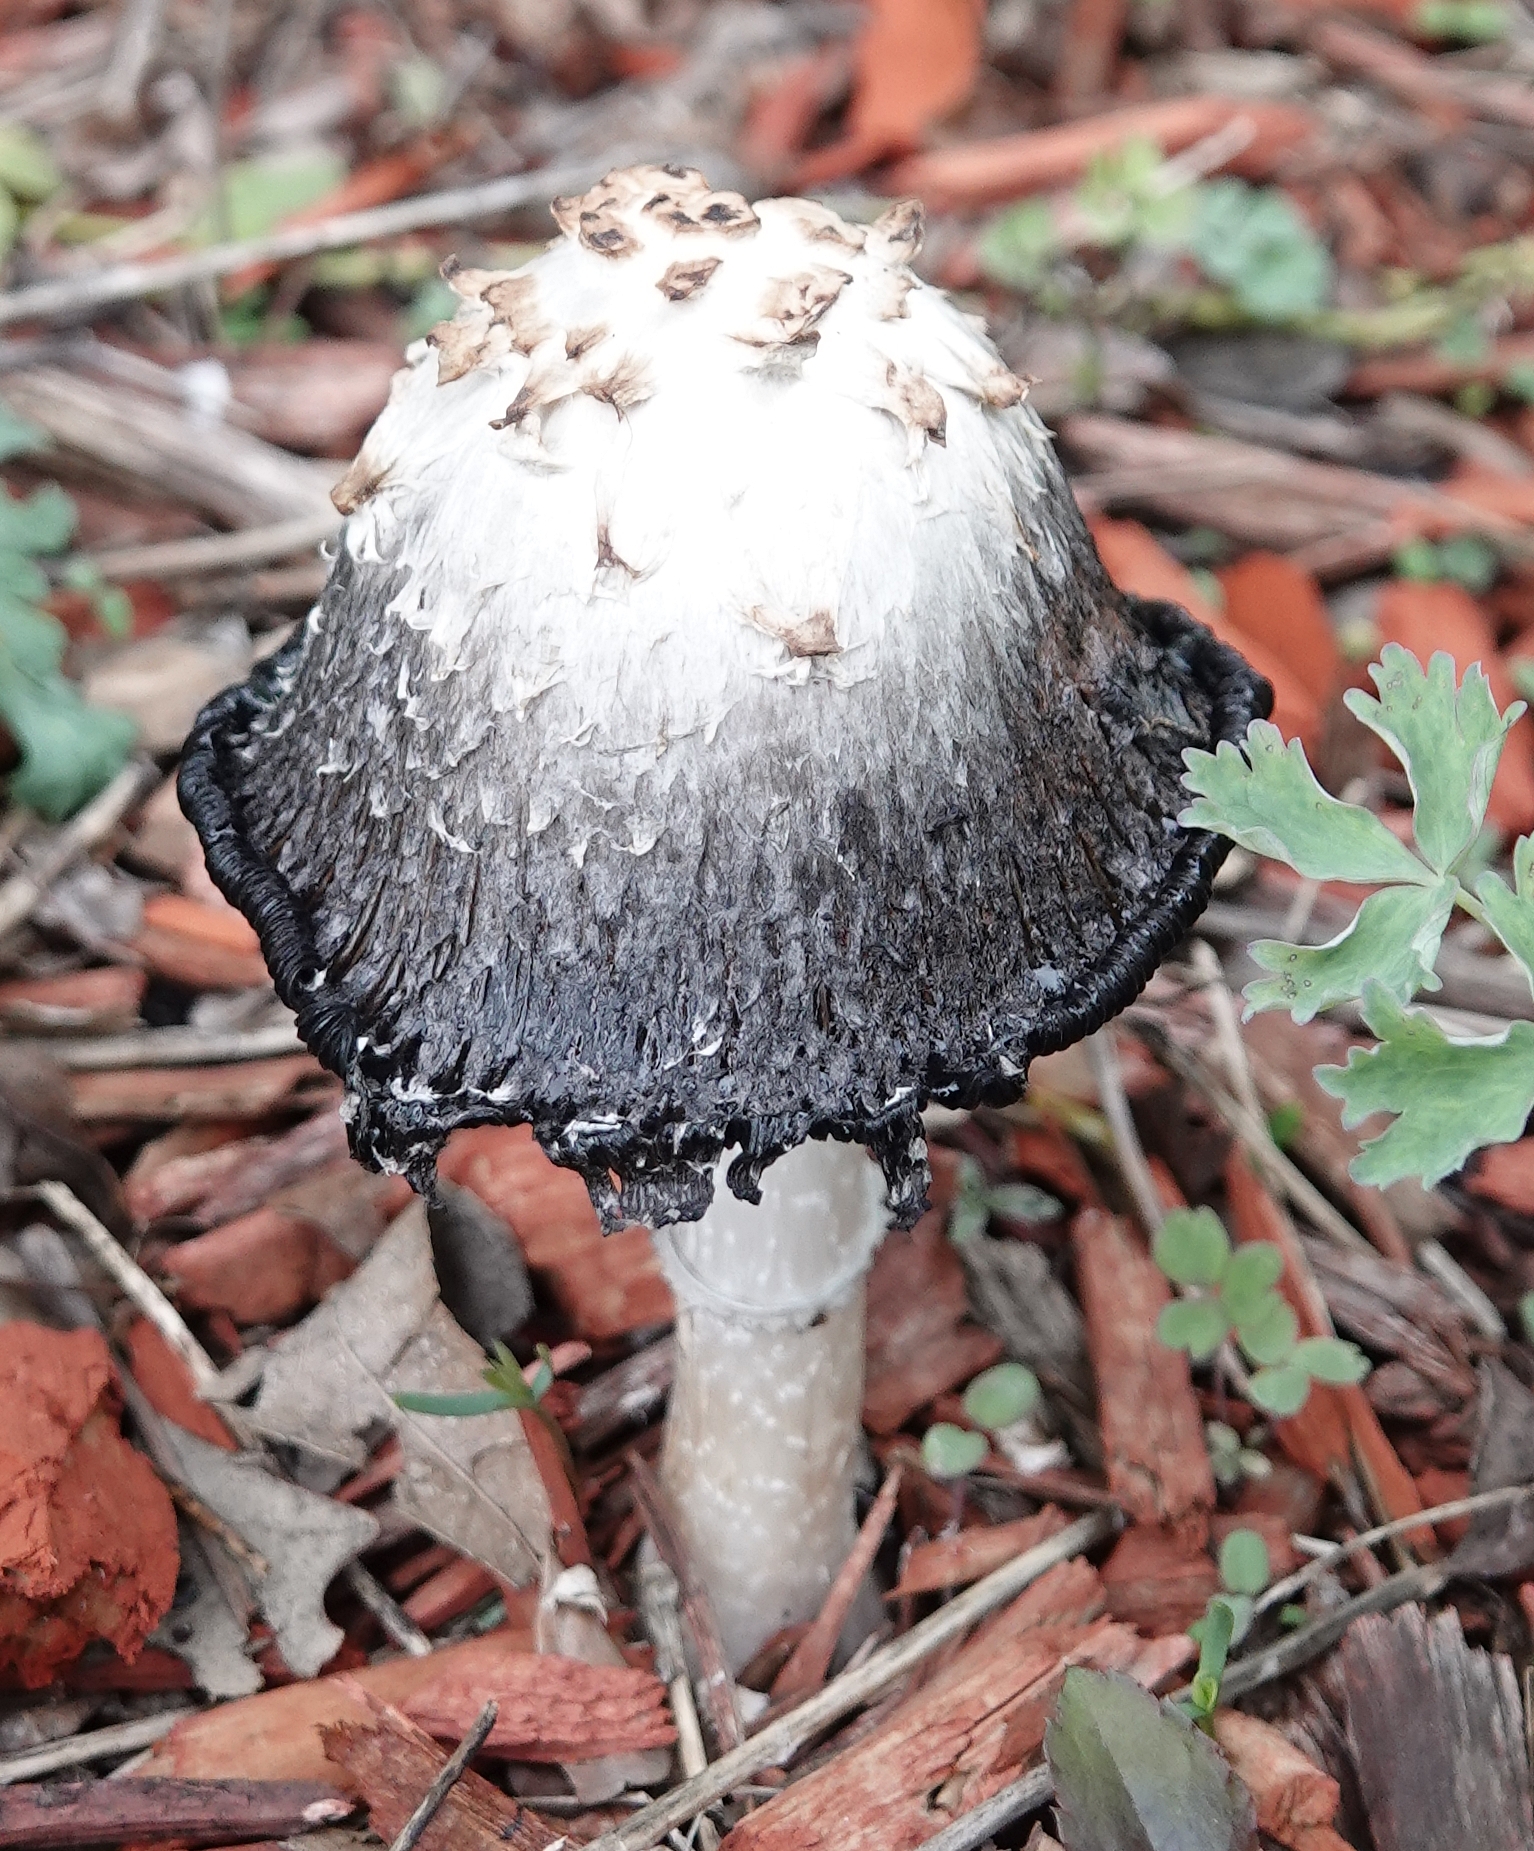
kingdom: Fungi
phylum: Basidiomycota
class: Agaricomycetes
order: Agaricales
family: Agaricaceae
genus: Coprinus
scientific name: Coprinus comatus
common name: Lawyer's wig
